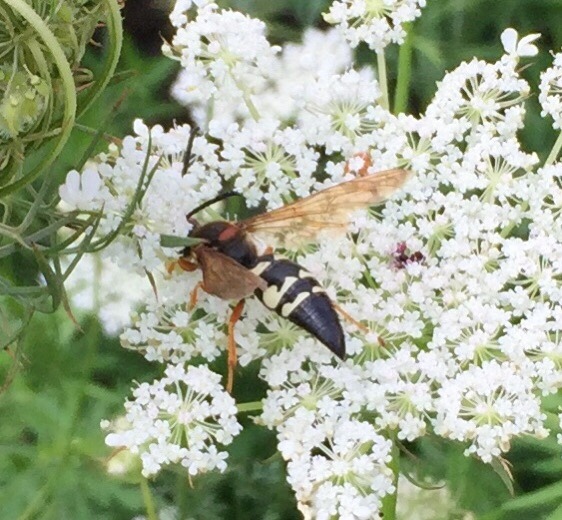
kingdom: Animalia
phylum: Arthropoda
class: Insecta
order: Hymenoptera
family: Crabronidae
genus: Sphecius
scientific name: Sphecius speciosus
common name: Cicada killer
